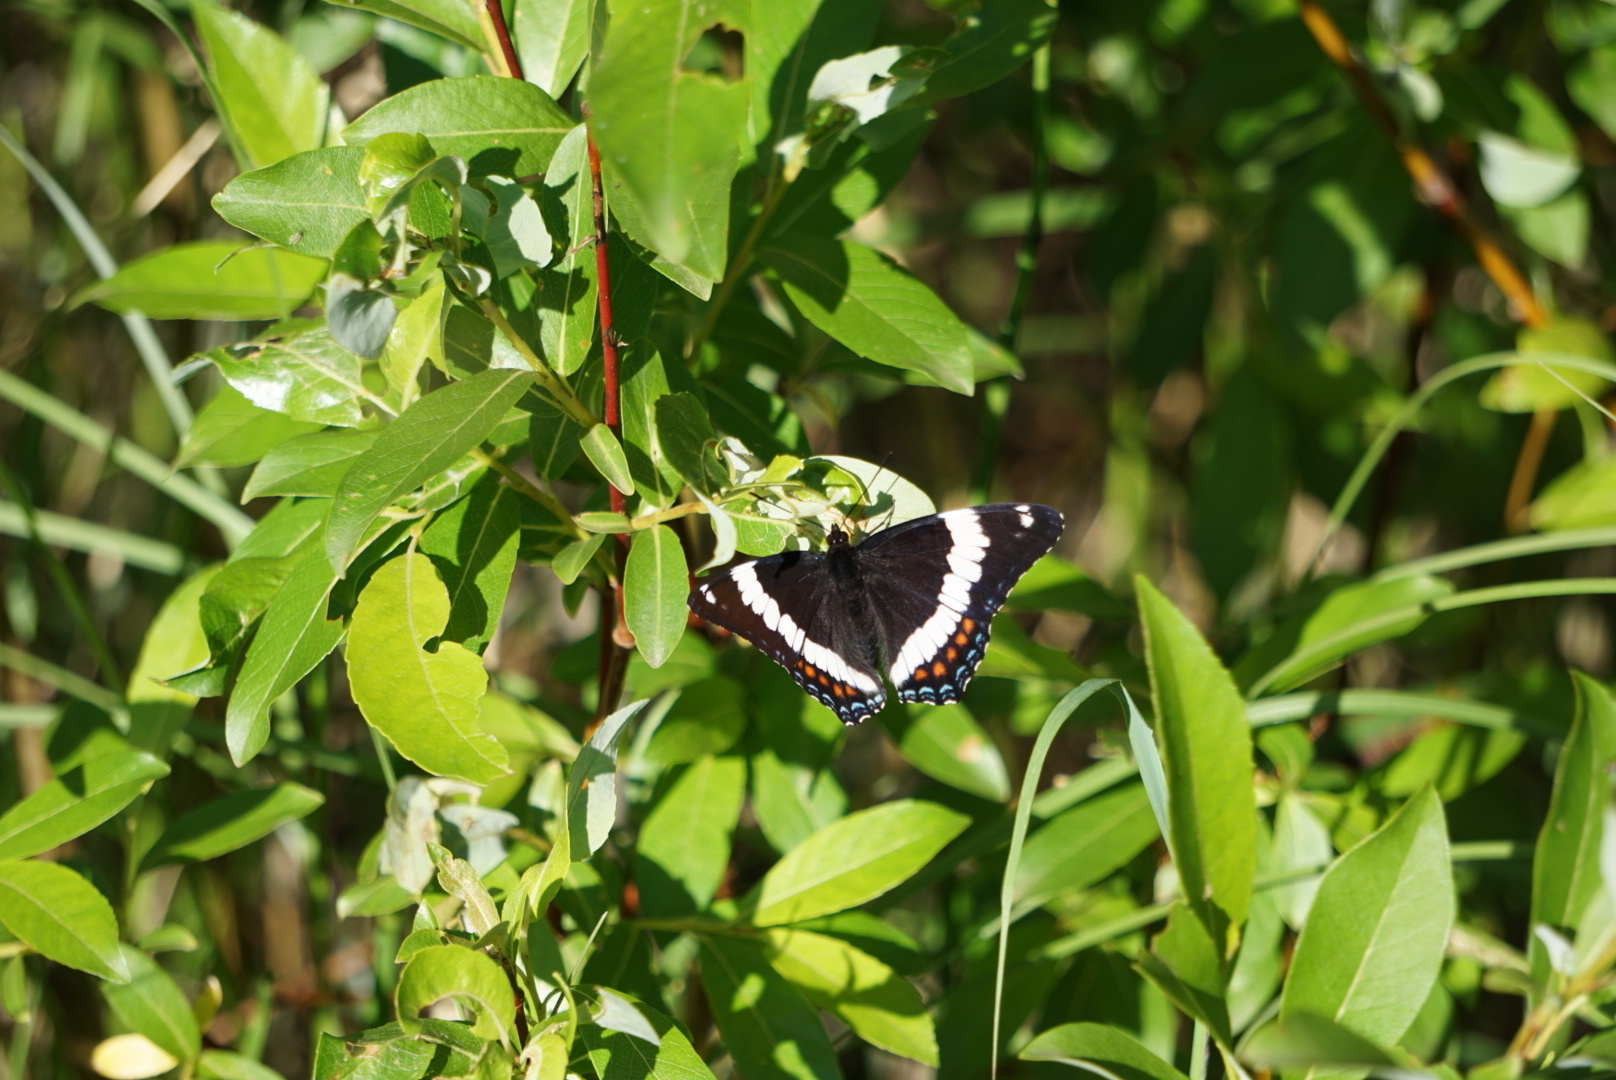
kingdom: Animalia
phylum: Arthropoda
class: Insecta
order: Lepidoptera
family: Nymphalidae
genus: Limenitis
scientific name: Limenitis arthemis
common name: Red-spotted admiral
